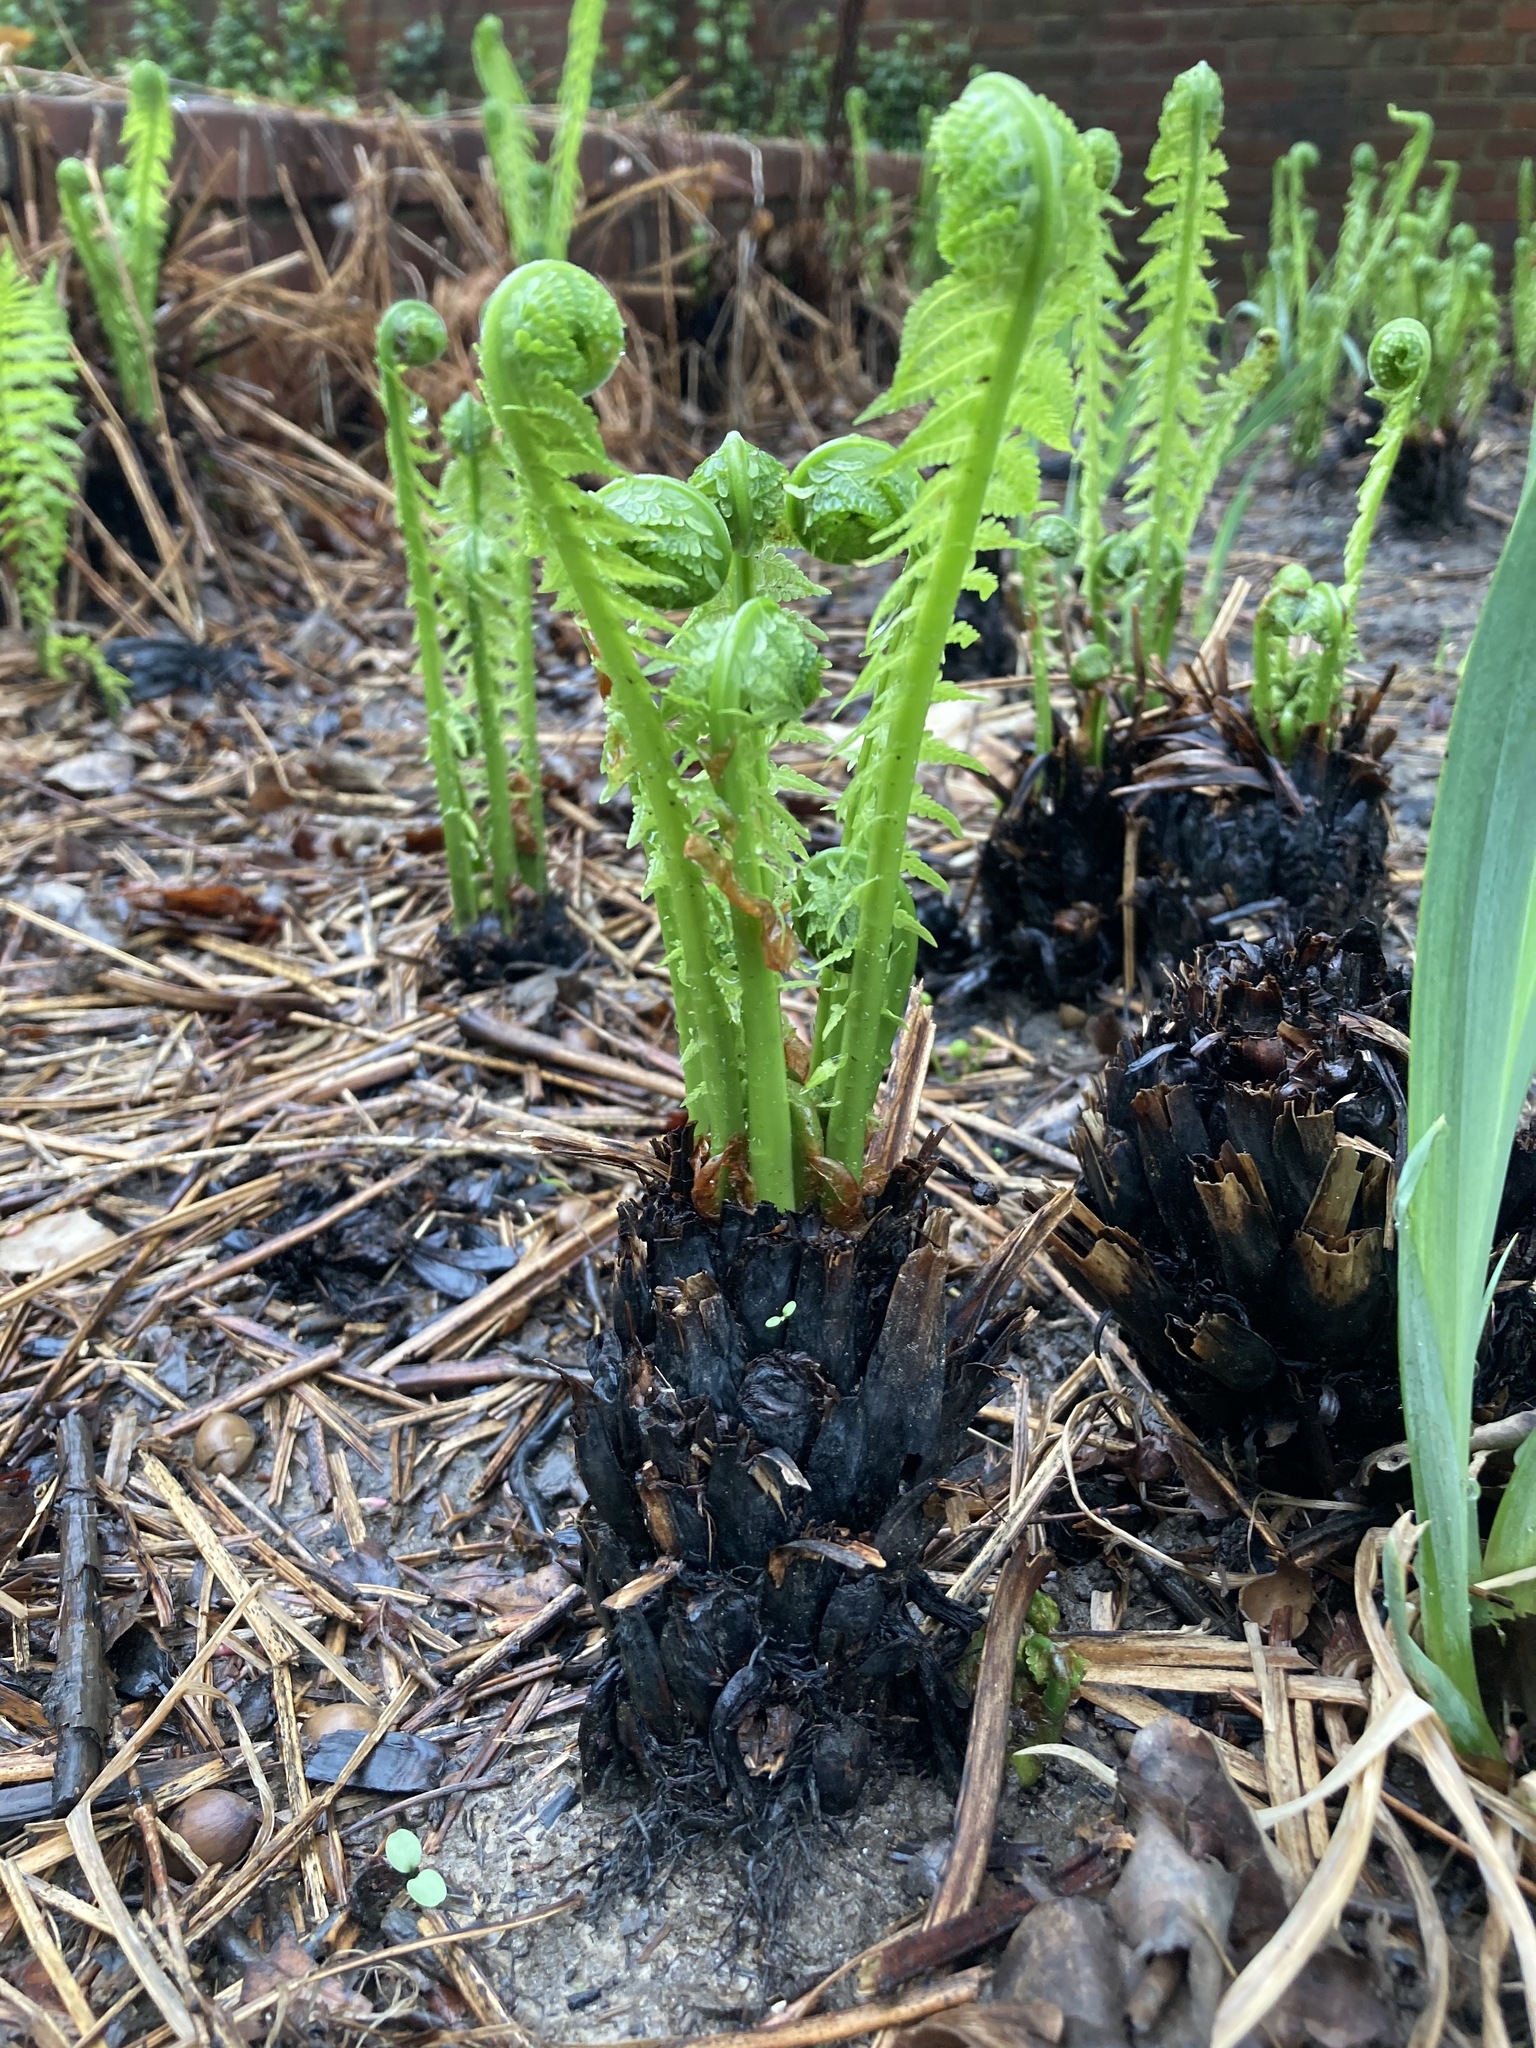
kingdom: Plantae
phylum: Tracheophyta
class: Polypodiopsida
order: Polypodiales
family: Onocleaceae
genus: Matteuccia
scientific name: Matteuccia struthiopteris
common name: Ostrich fern
